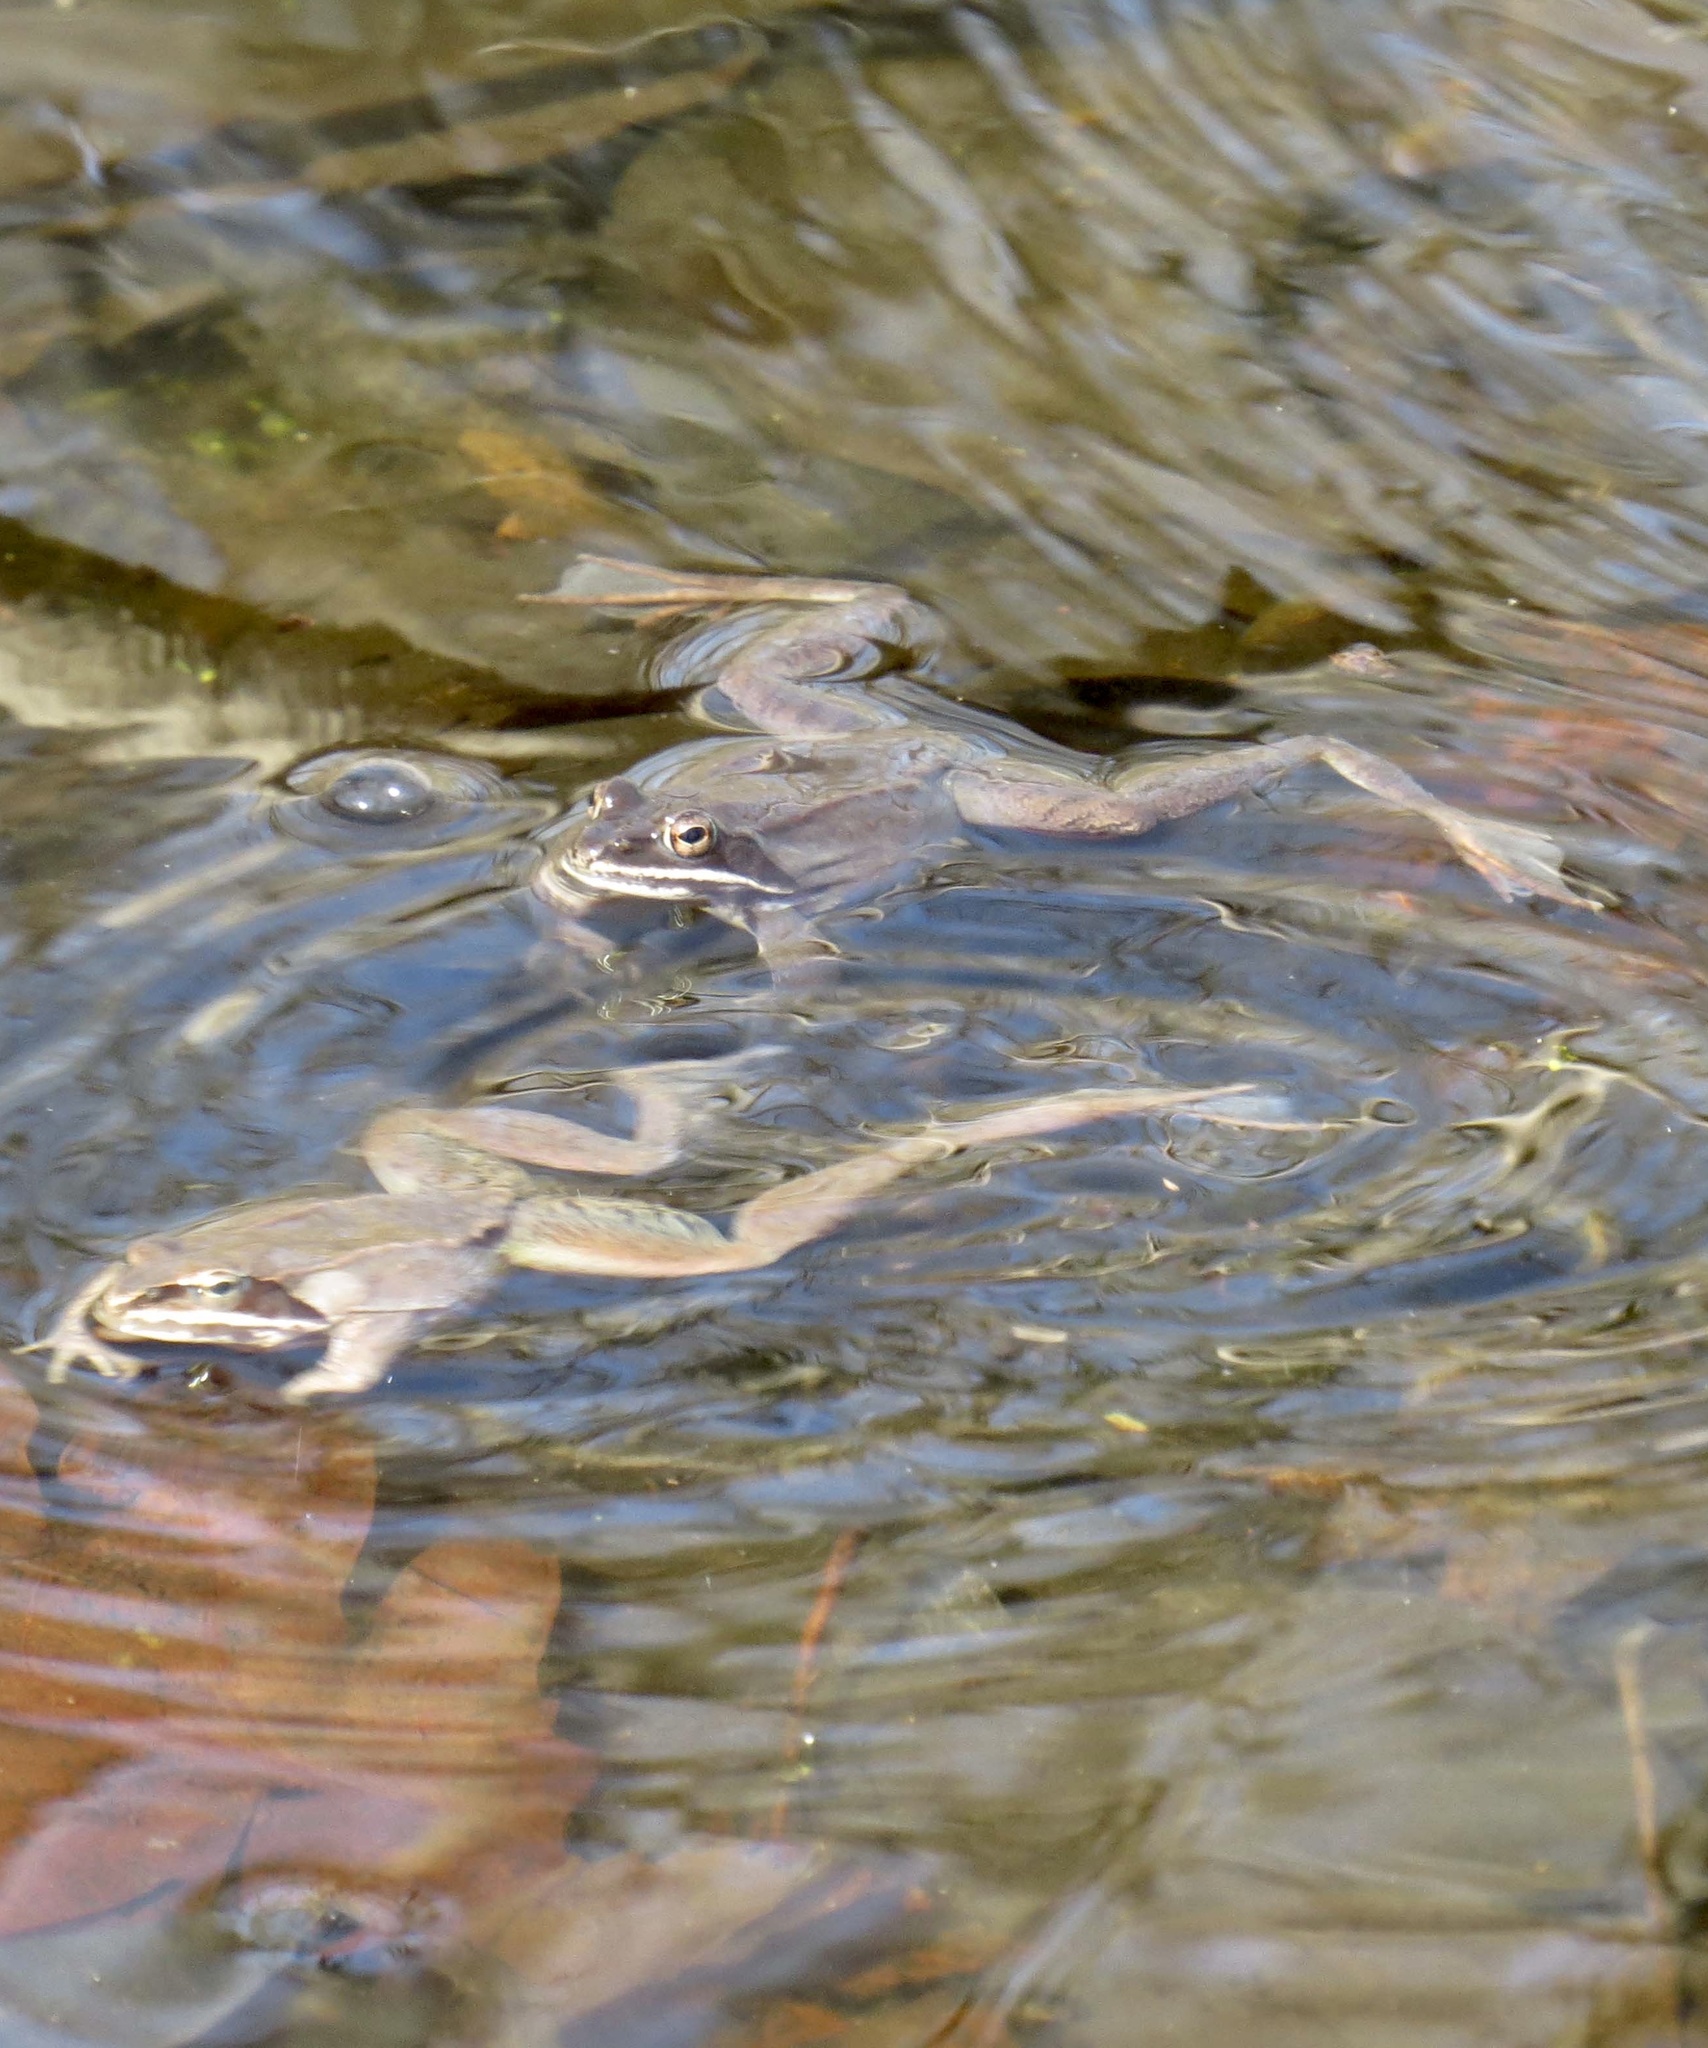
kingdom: Animalia
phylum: Chordata
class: Amphibia
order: Anura
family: Ranidae
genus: Lithobates
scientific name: Lithobates sylvaticus
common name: Wood frog
